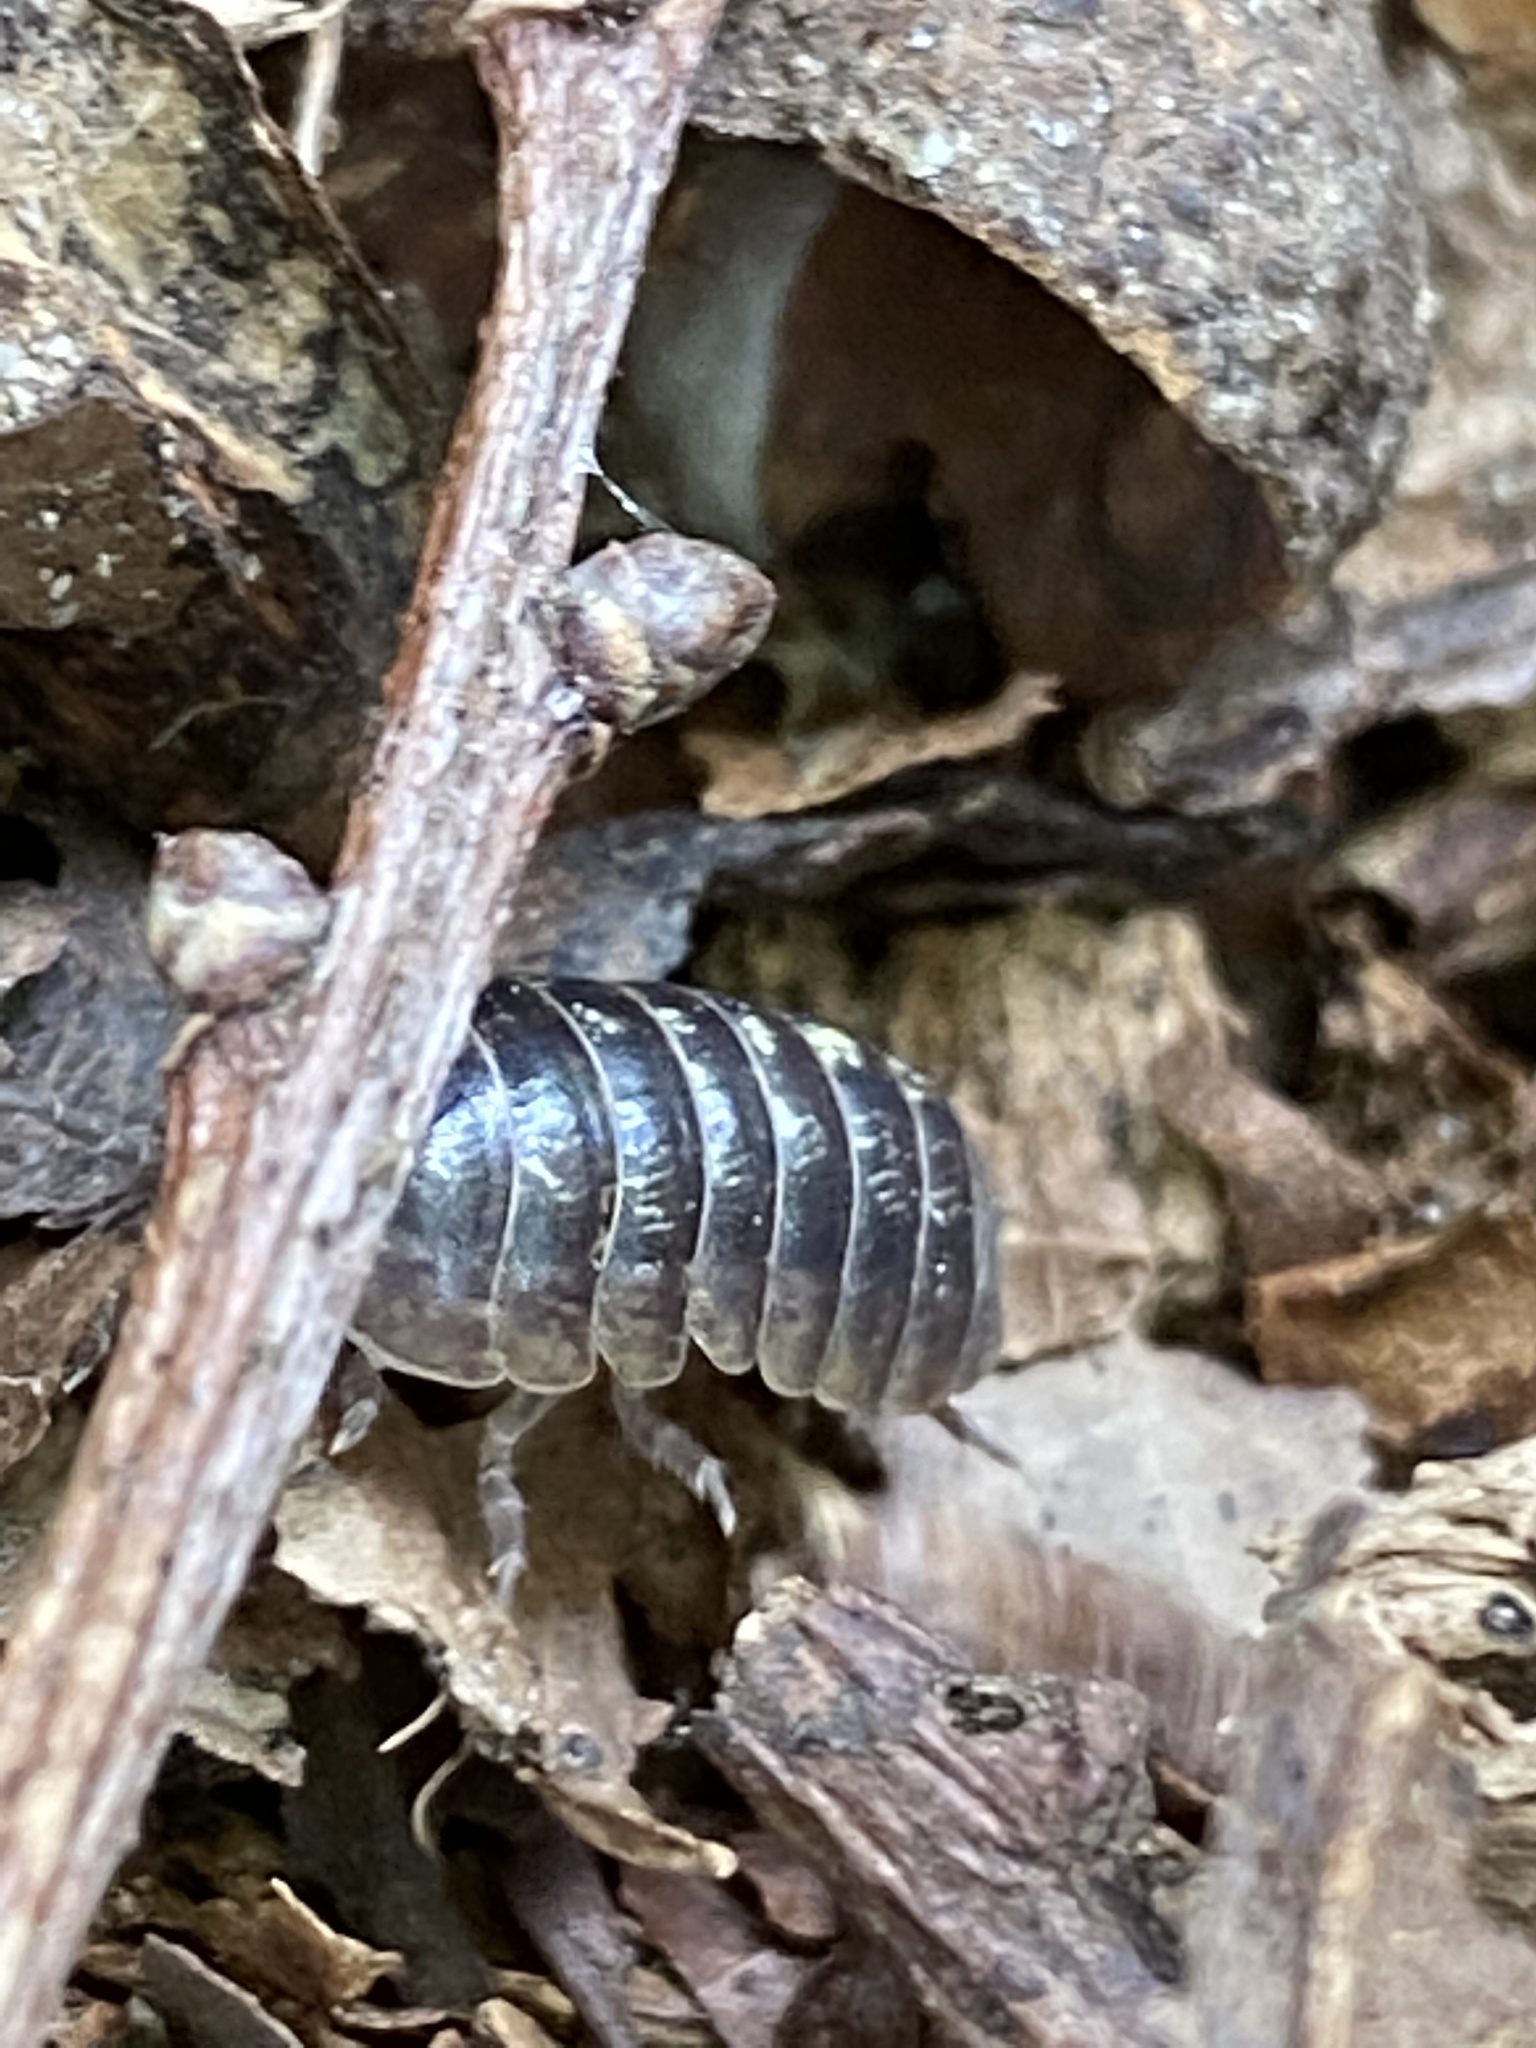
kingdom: Animalia
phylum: Arthropoda
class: Malacostraca
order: Isopoda
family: Armadillidiidae
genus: Armadillidium
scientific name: Armadillidium vulgare
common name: Common pill woodlouse
